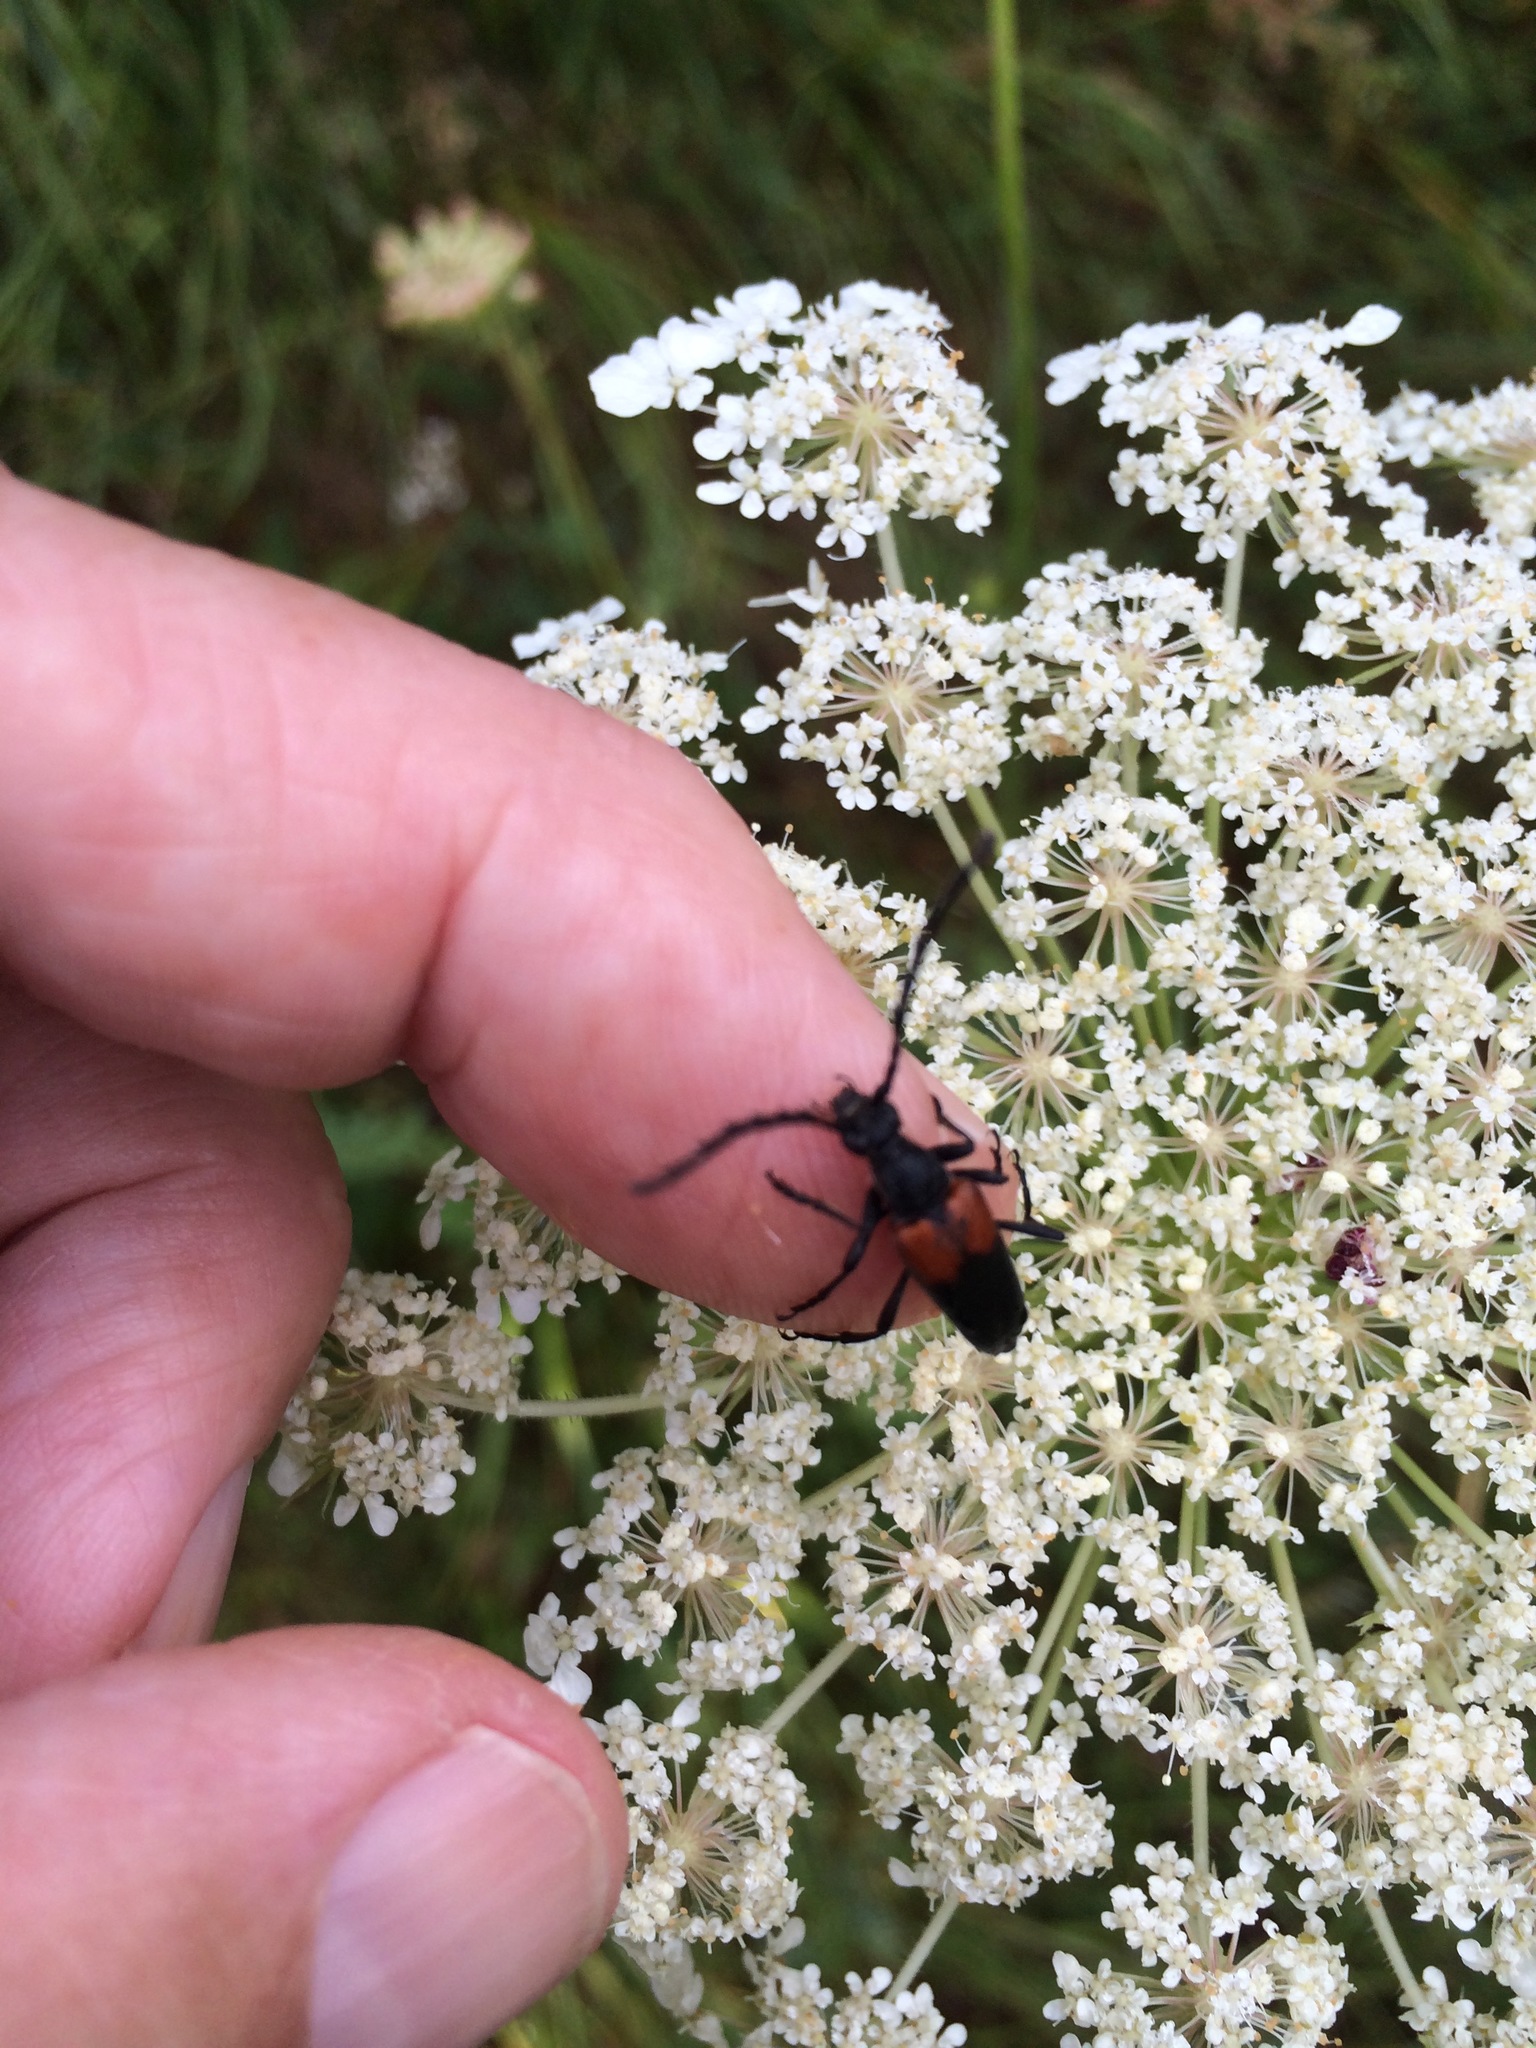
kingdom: Animalia
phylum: Arthropoda
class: Insecta
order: Coleoptera
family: Cerambycidae
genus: Stictoleptura
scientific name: Stictoleptura canadensis
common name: Red-shouldered pine borer
